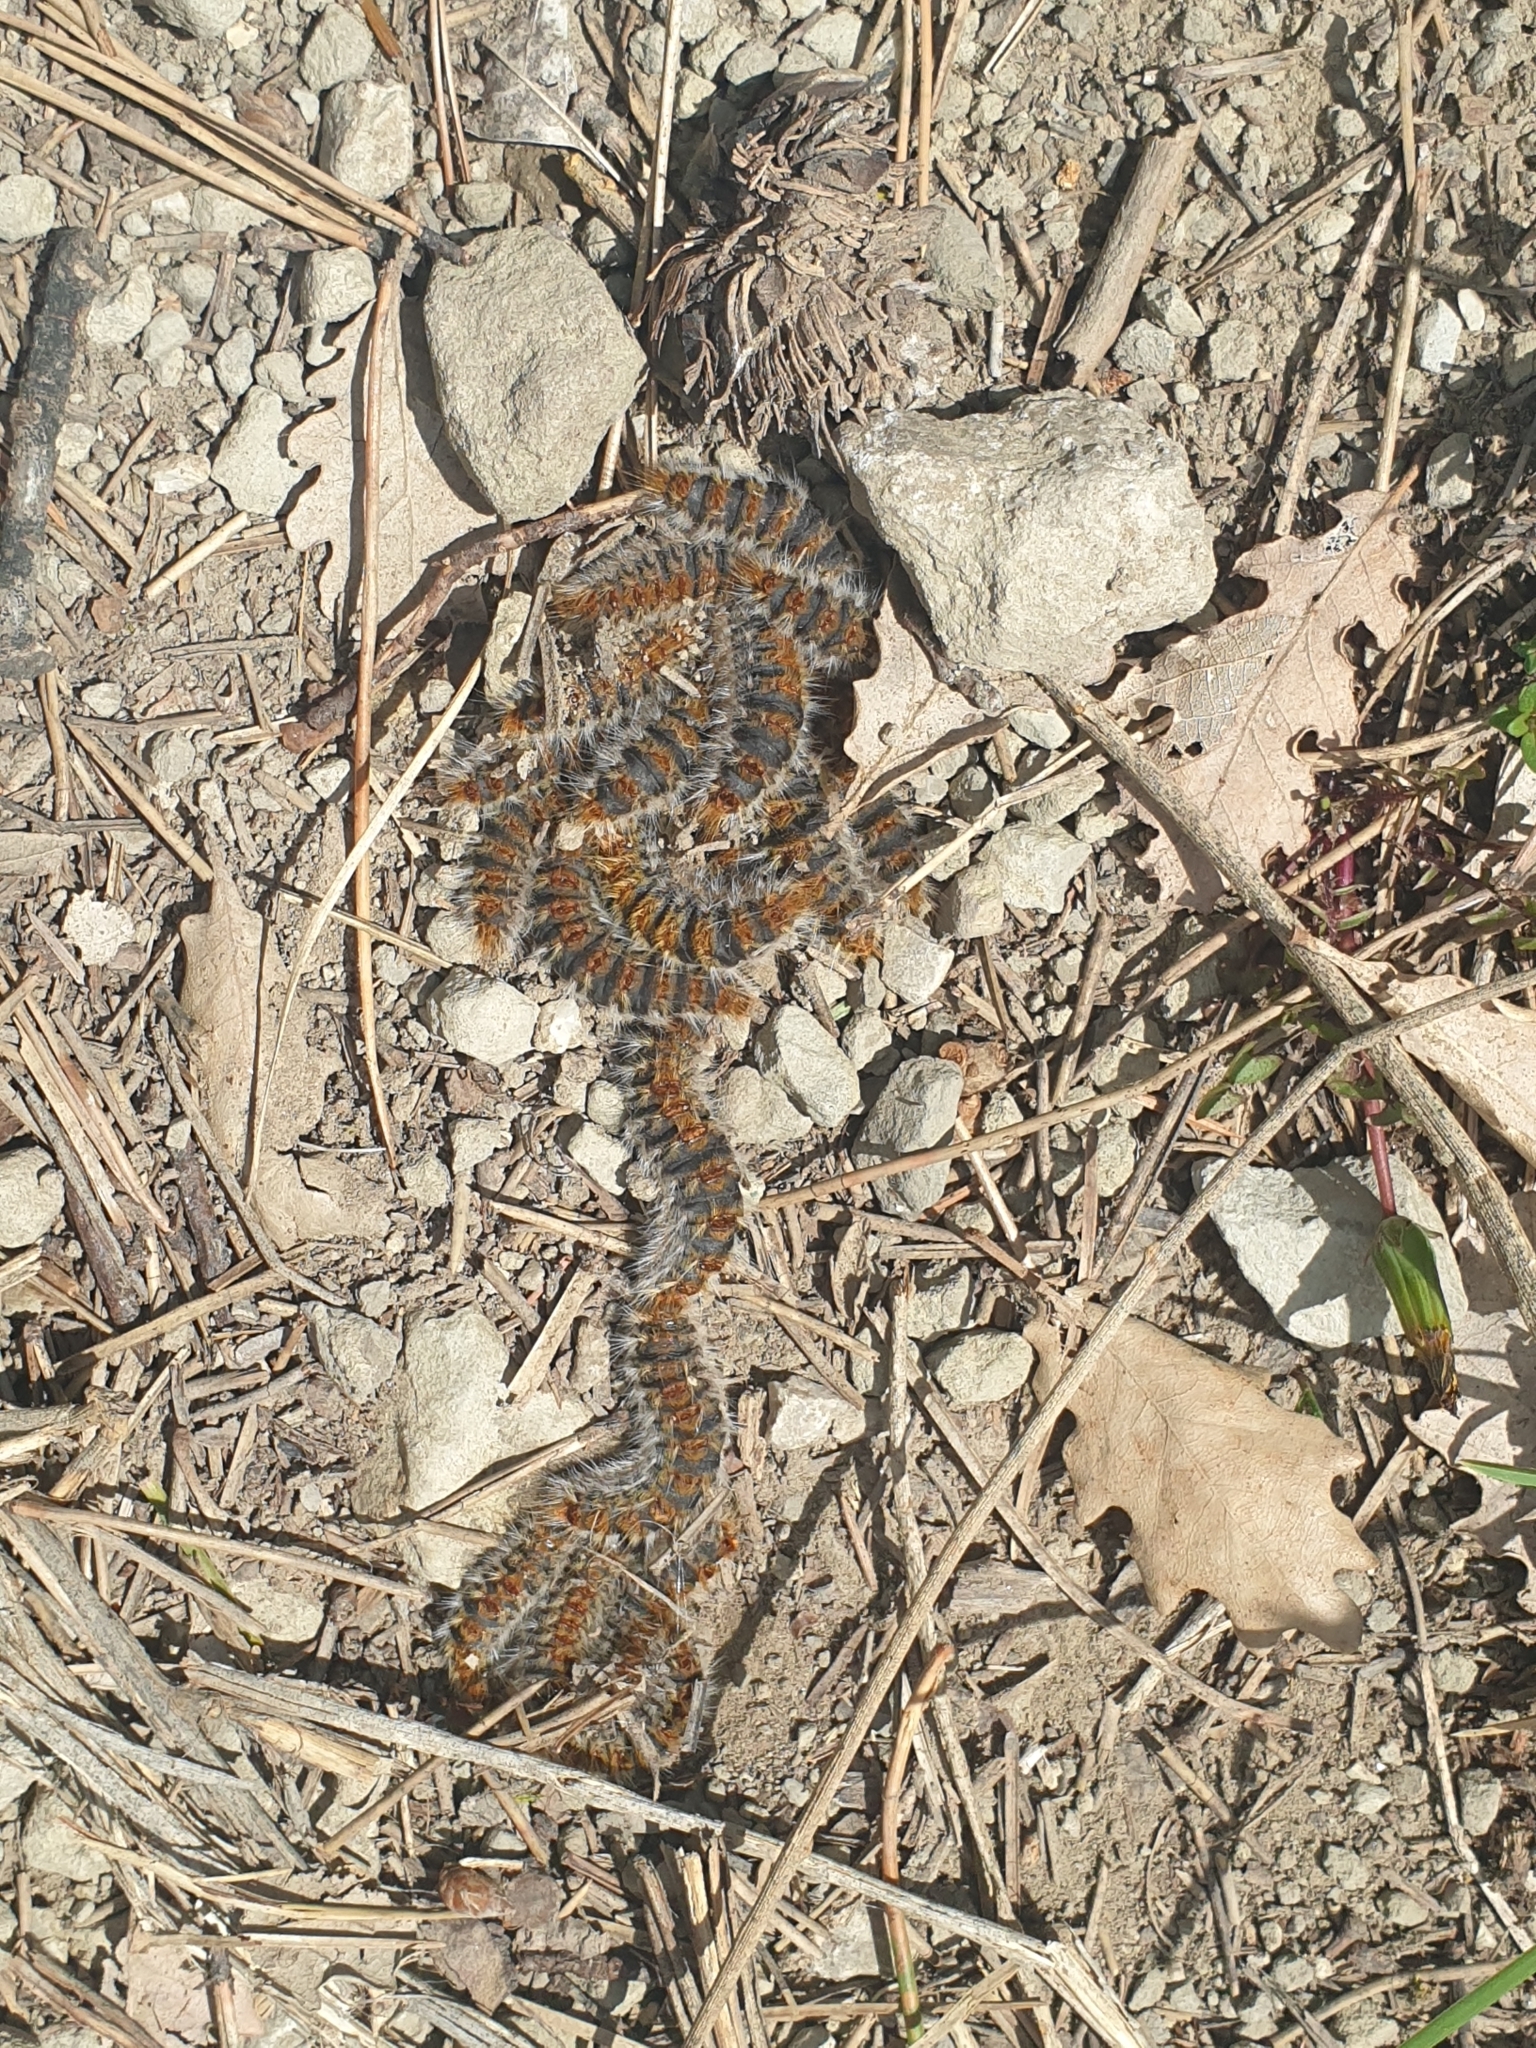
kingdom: Animalia
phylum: Arthropoda
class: Insecta
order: Lepidoptera
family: Notodontidae
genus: Thaumetopoea
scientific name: Thaumetopoea pityocampa
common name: Pine processionary
